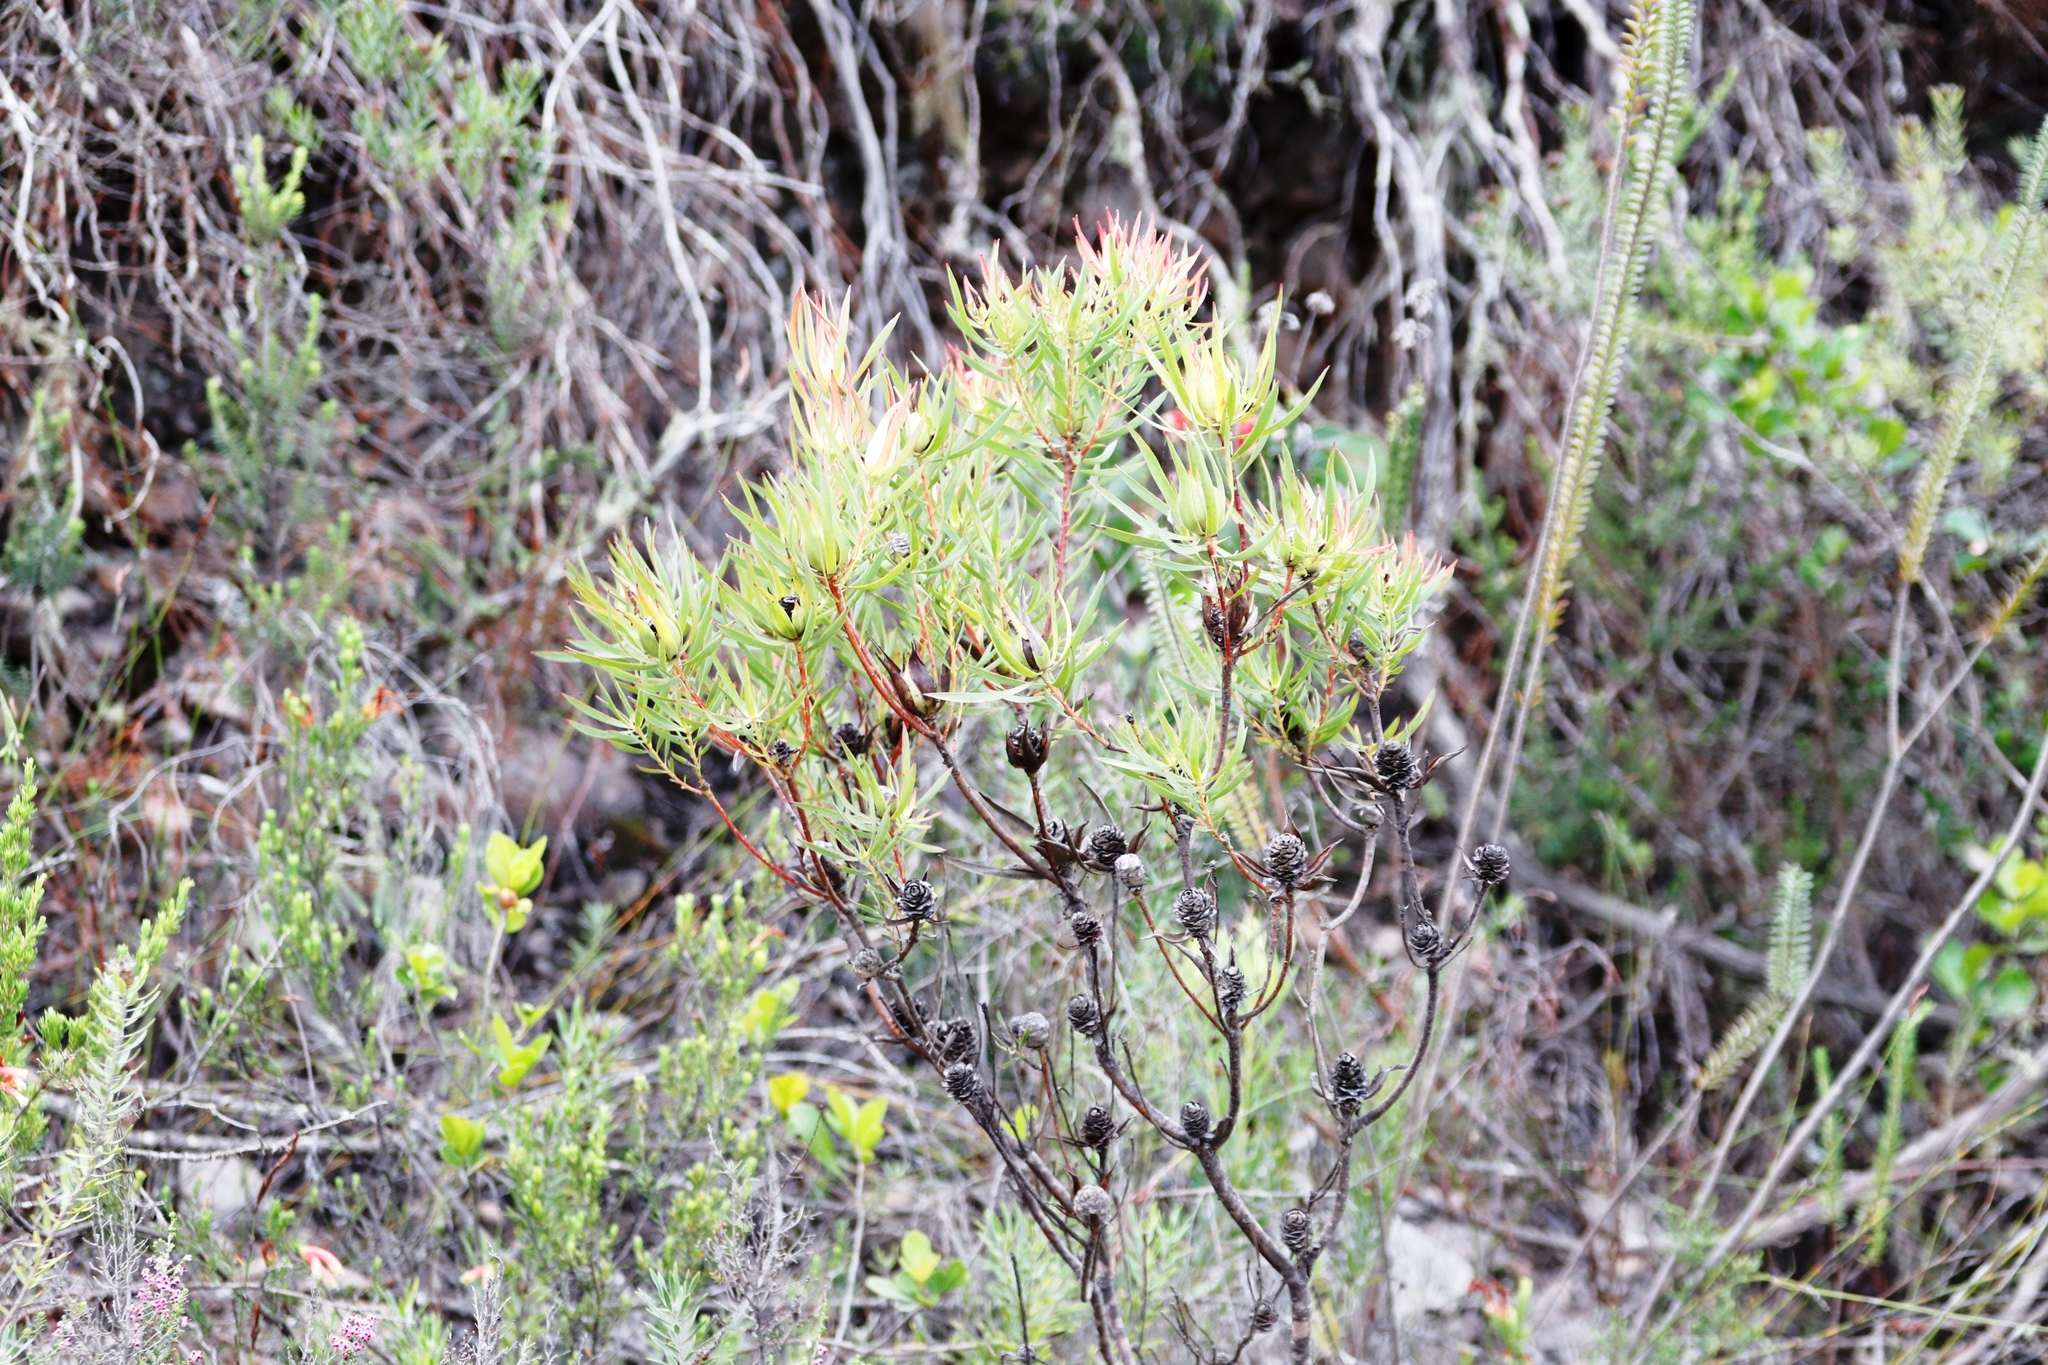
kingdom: Plantae
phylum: Tracheophyta
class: Magnoliopsida
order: Proteales
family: Proteaceae
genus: Leucadendron
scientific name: Leucadendron salignum
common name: Common sunshine conebush
